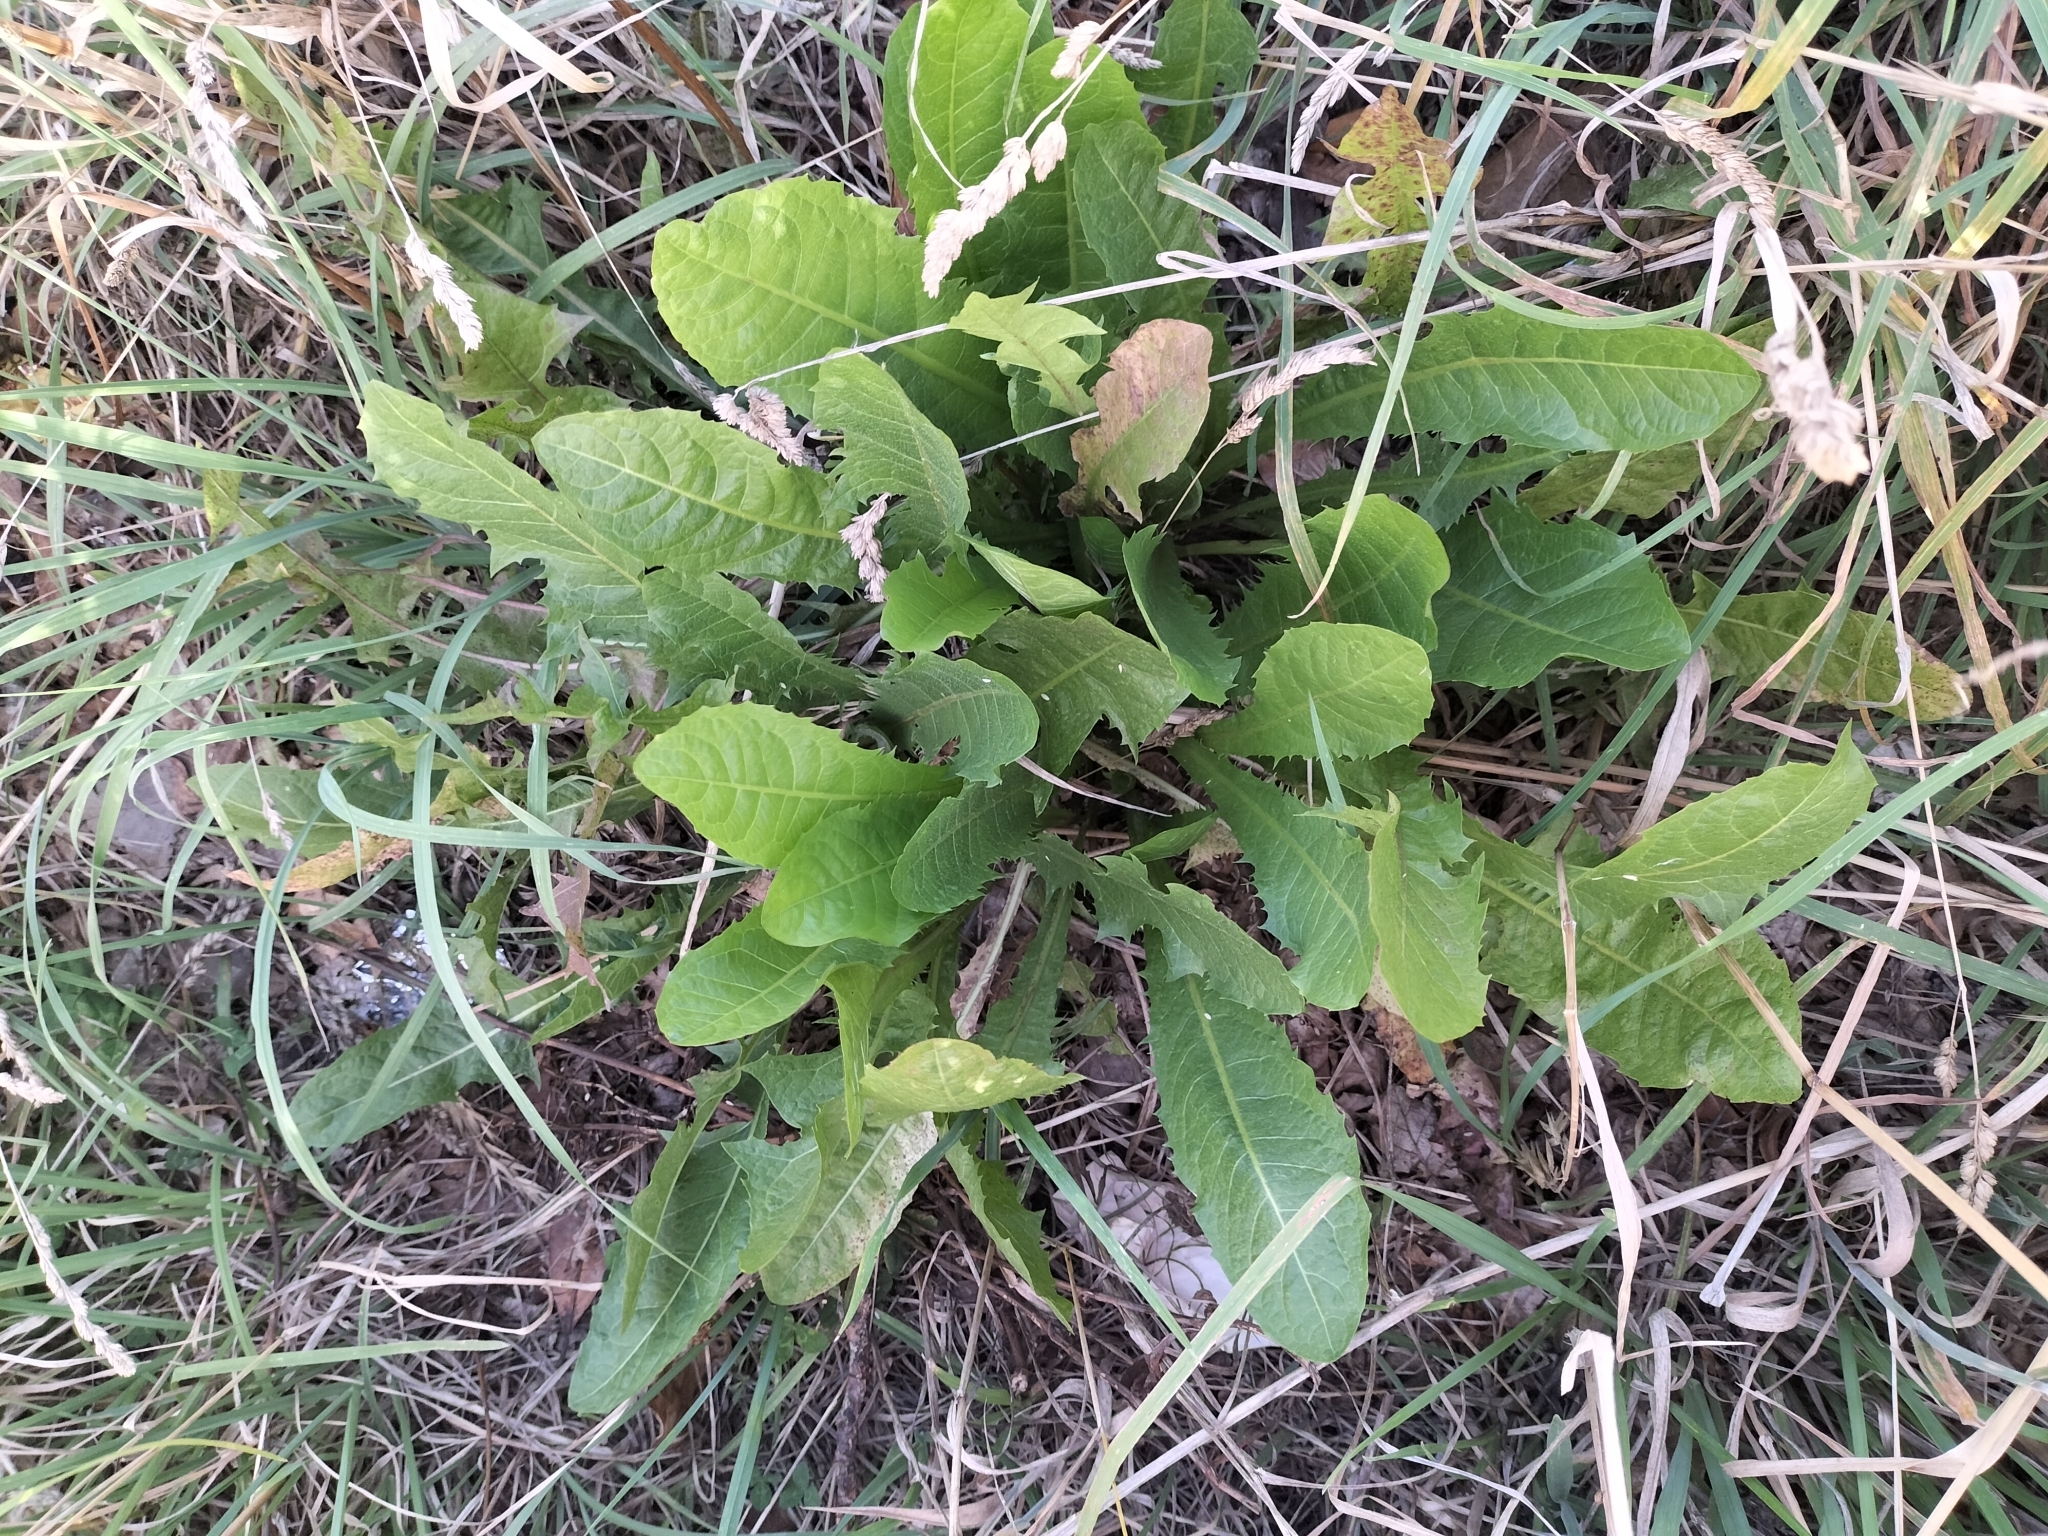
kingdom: Plantae
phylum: Tracheophyta
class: Magnoliopsida
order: Asterales
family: Asteraceae
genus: Taraxacum
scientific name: Taraxacum officinale
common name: Common dandelion
